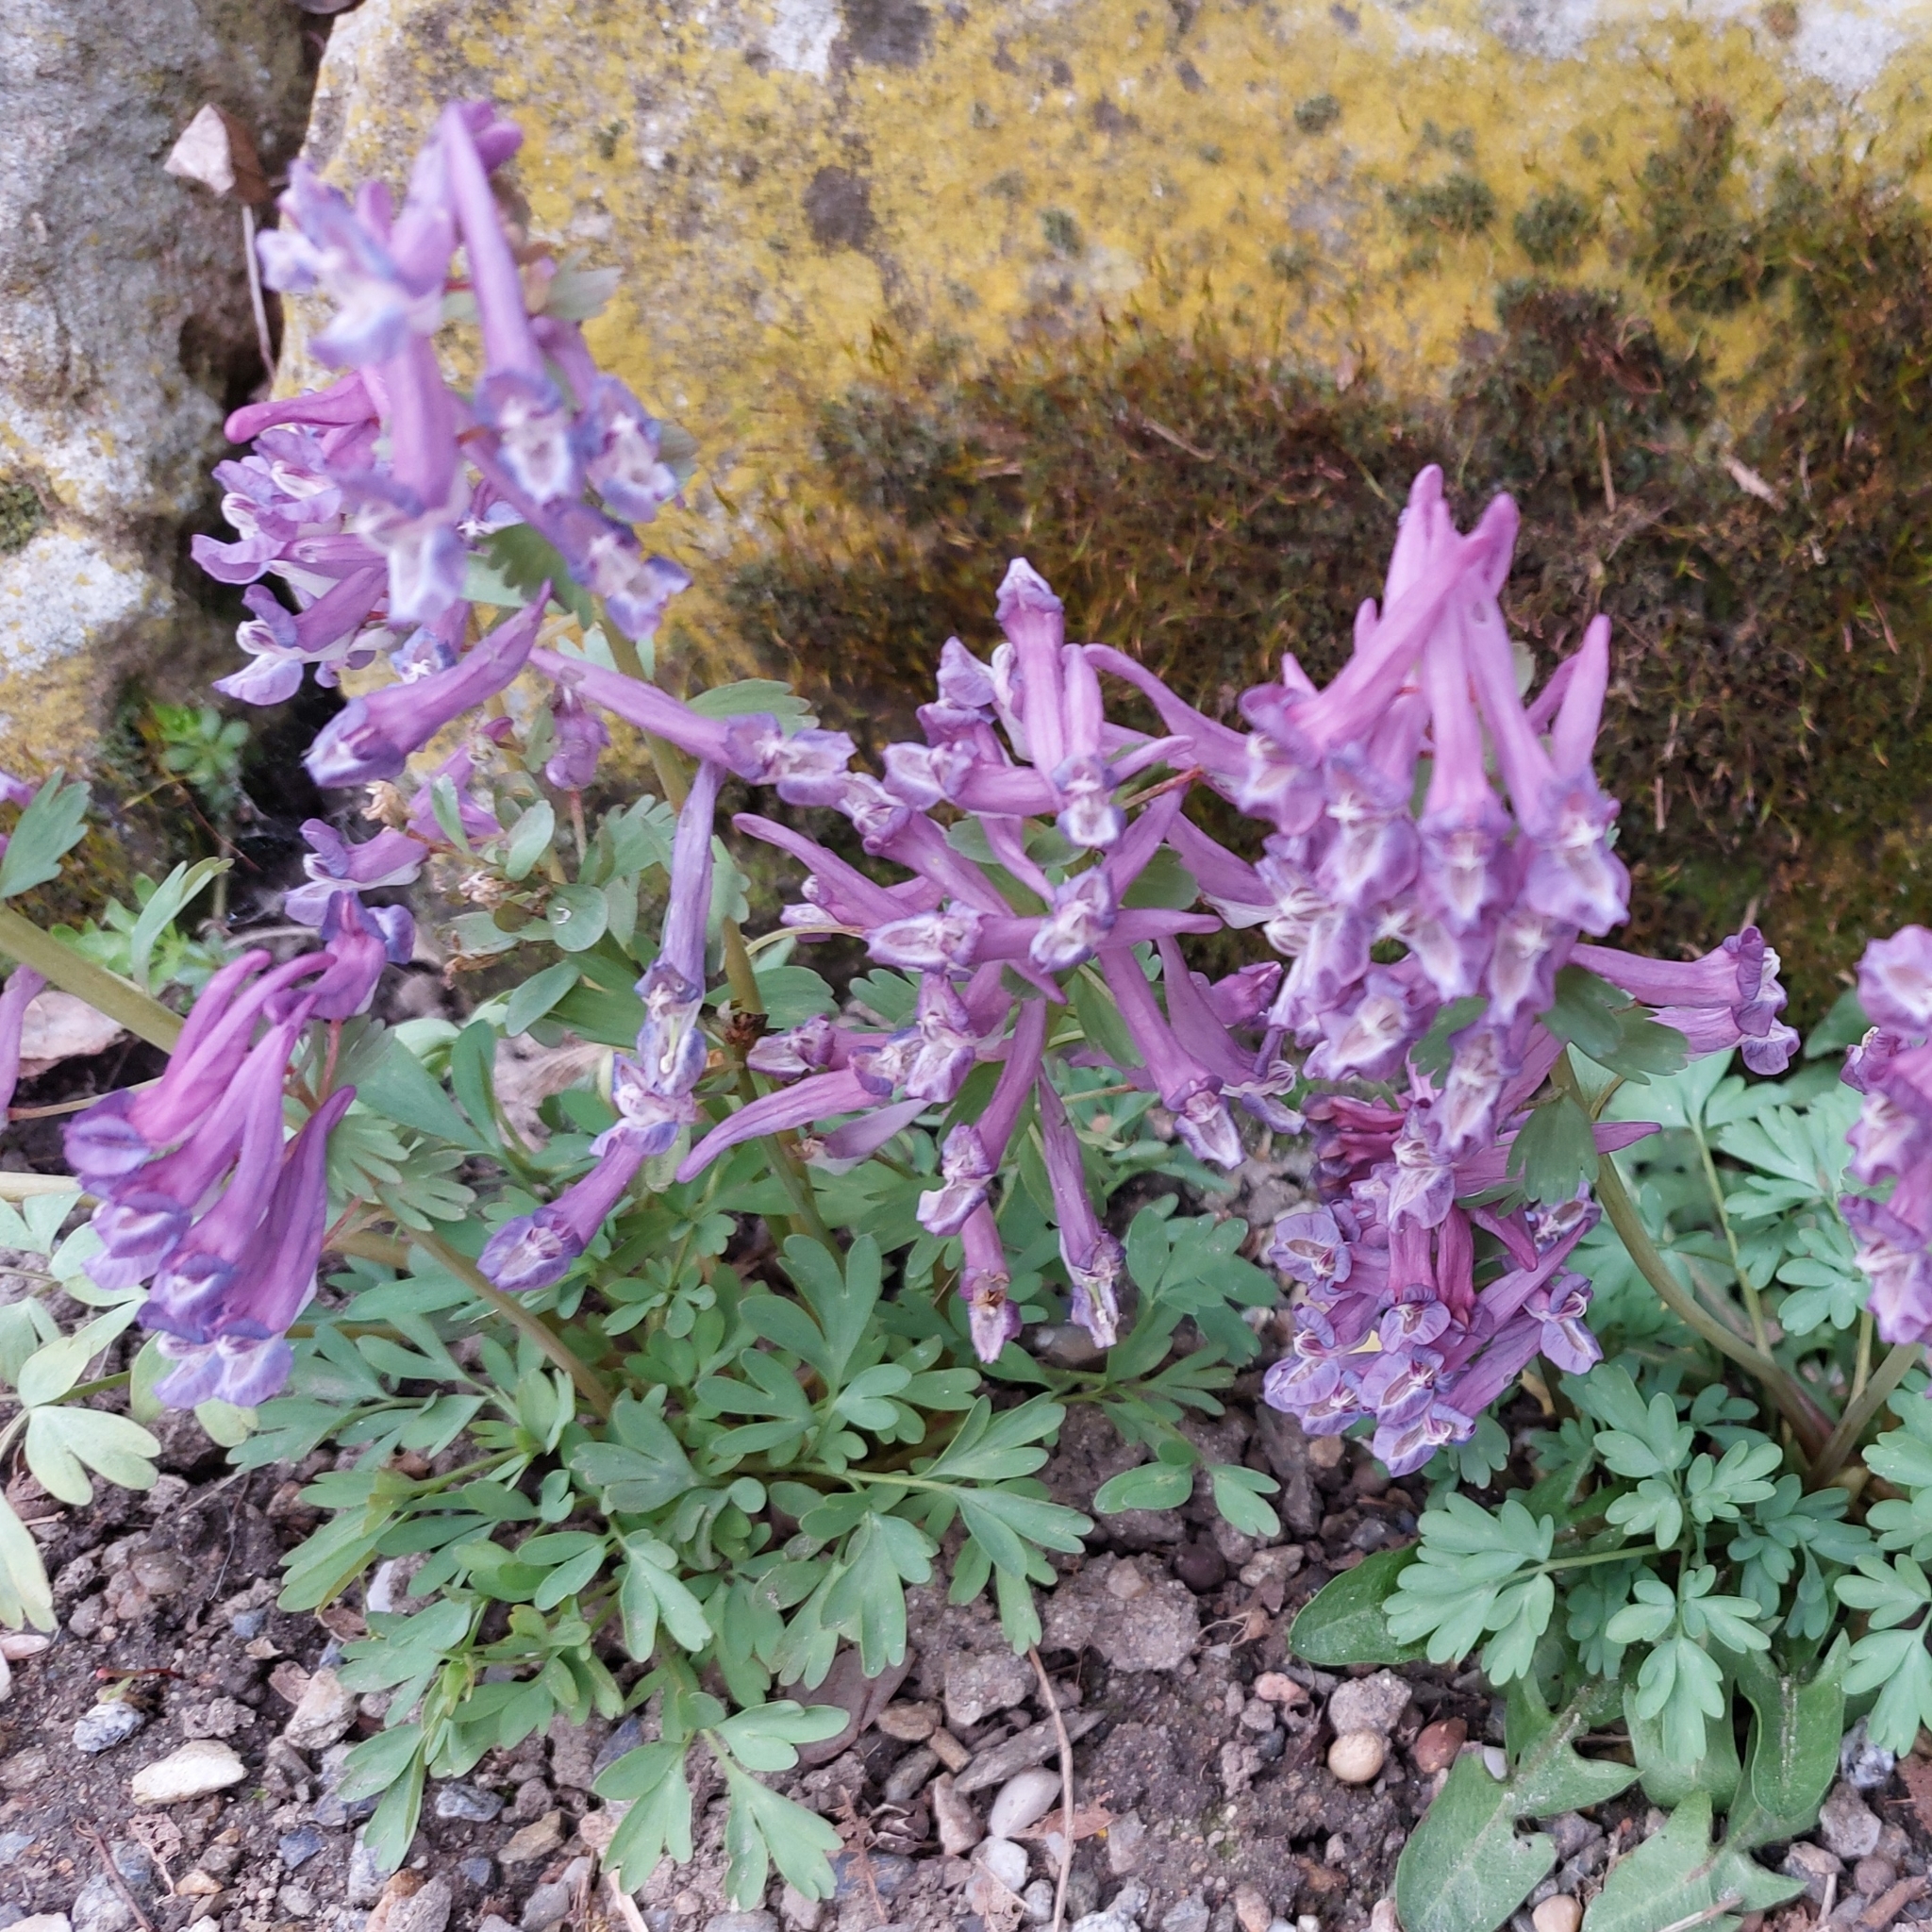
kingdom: Plantae
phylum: Tracheophyta
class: Magnoliopsida
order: Ranunculales
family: Papaveraceae
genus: Corydalis
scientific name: Corydalis solida
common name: Bird-in-a-bush
